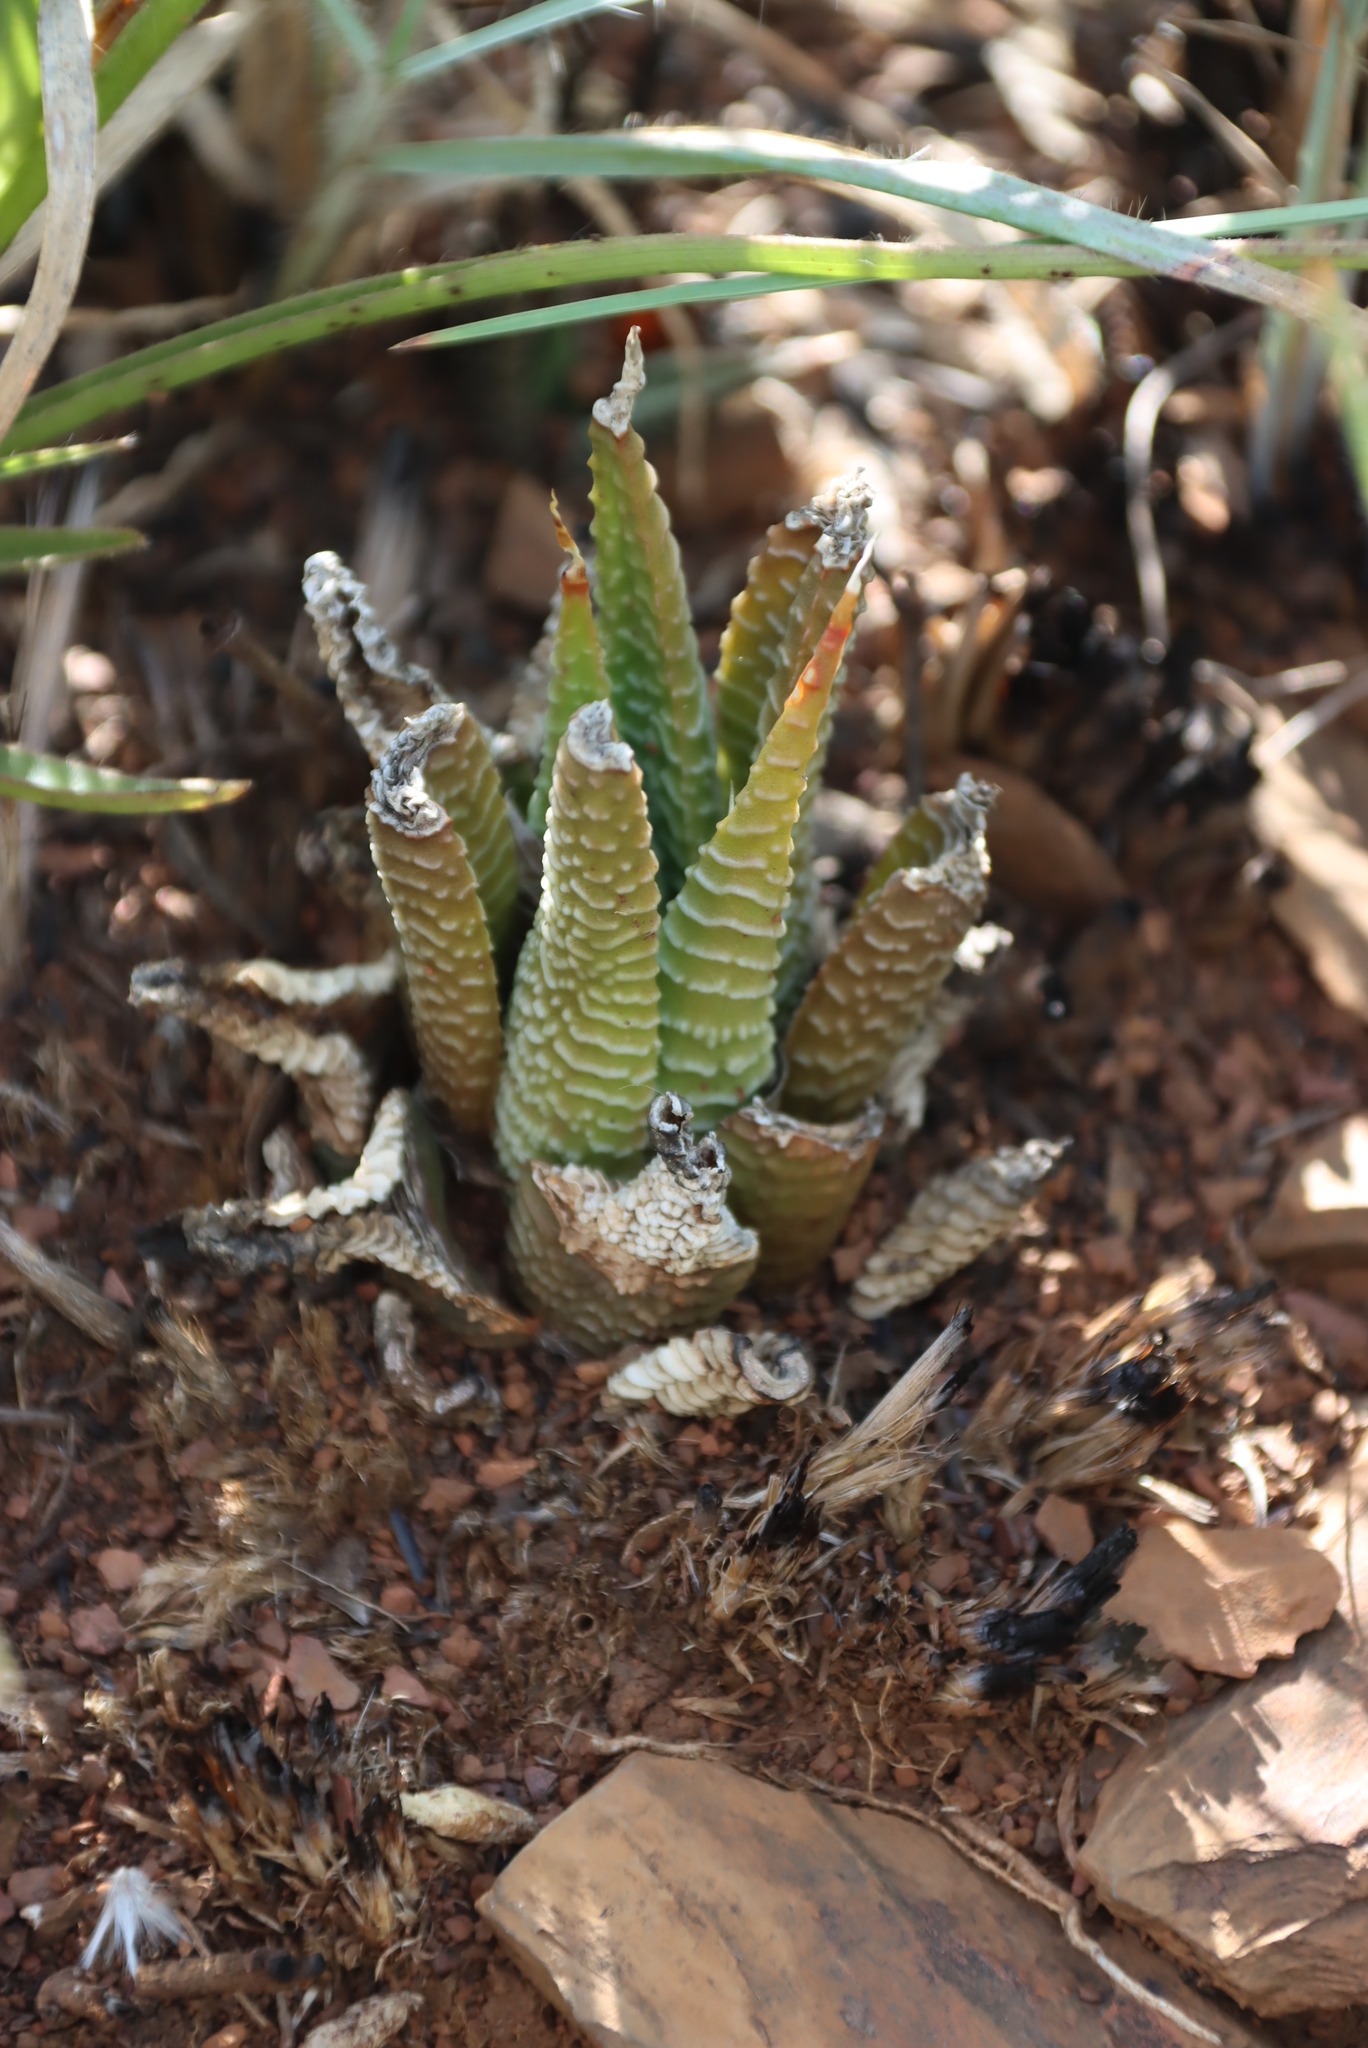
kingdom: Plantae
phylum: Tracheophyta
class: Liliopsida
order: Asparagales
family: Asphodelaceae
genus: Haworthiopsis
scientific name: Haworthiopsis limifolia
